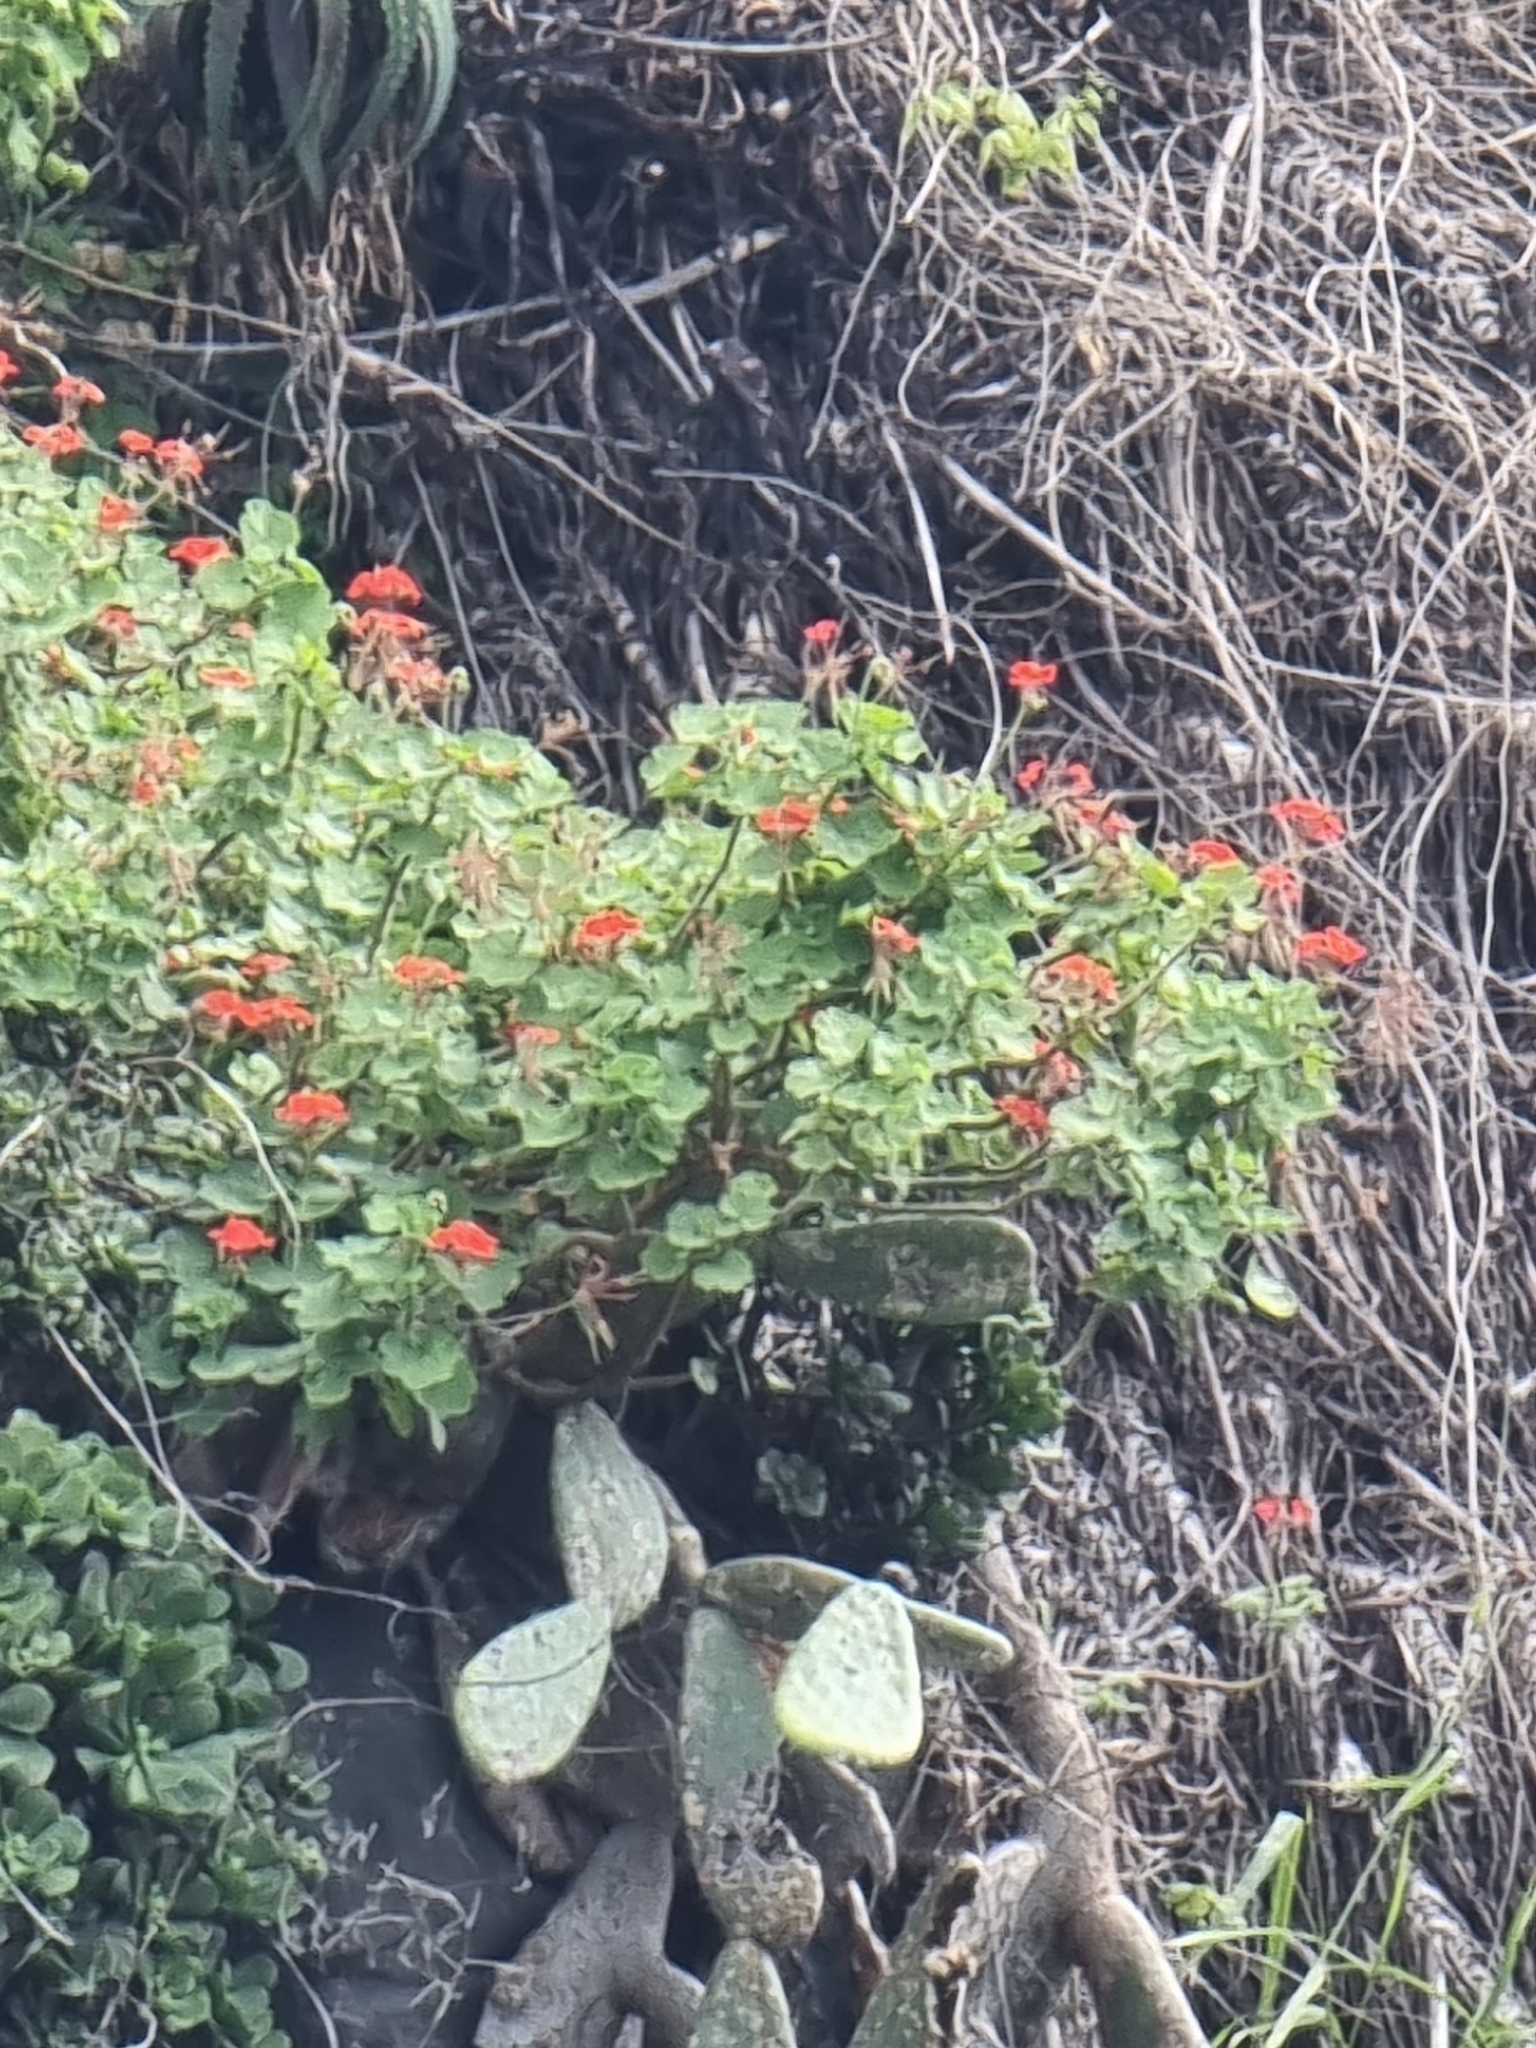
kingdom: Plantae
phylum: Tracheophyta
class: Magnoliopsida
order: Geraniales
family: Geraniaceae
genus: Pelargonium
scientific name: Pelargonium hybridum
